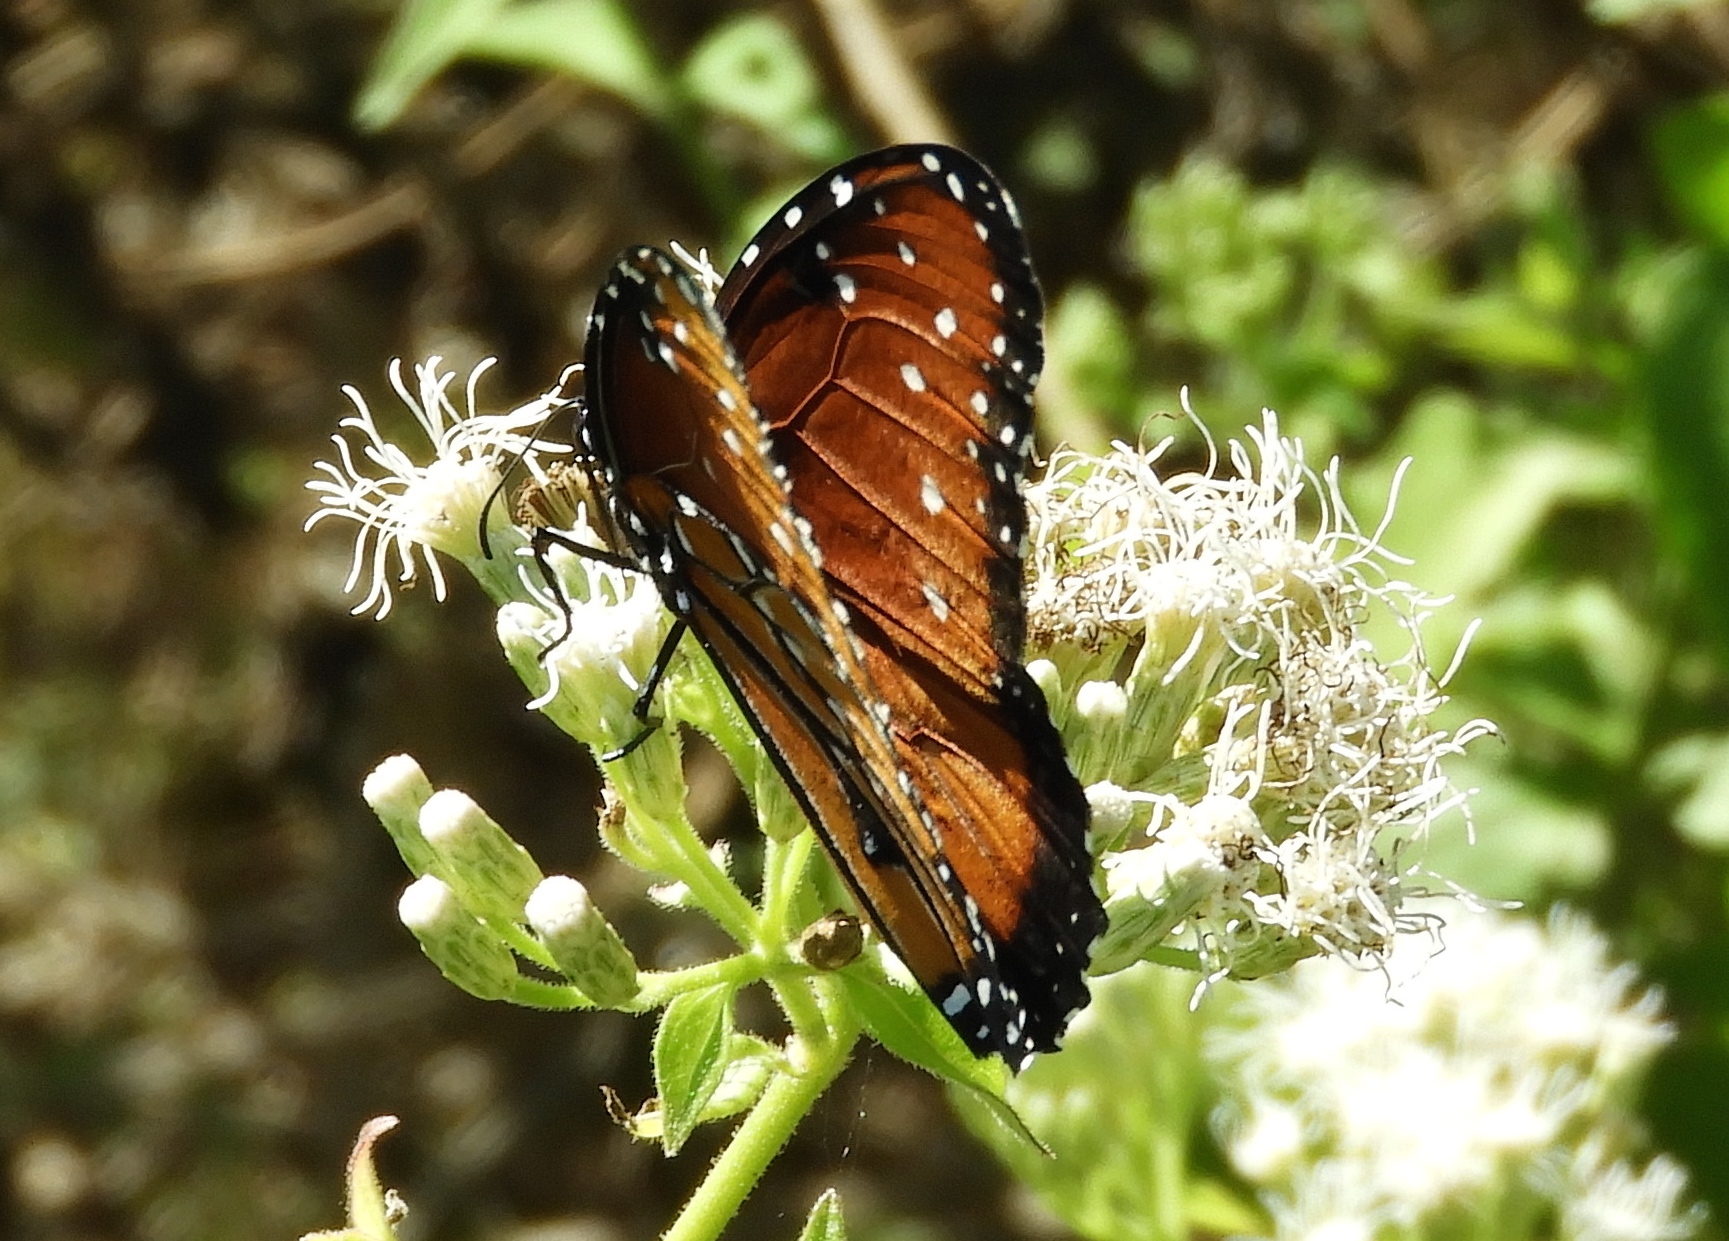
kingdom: Animalia
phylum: Arthropoda
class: Insecta
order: Lepidoptera
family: Nymphalidae
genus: Danaus
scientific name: Danaus gilippus
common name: Queen
